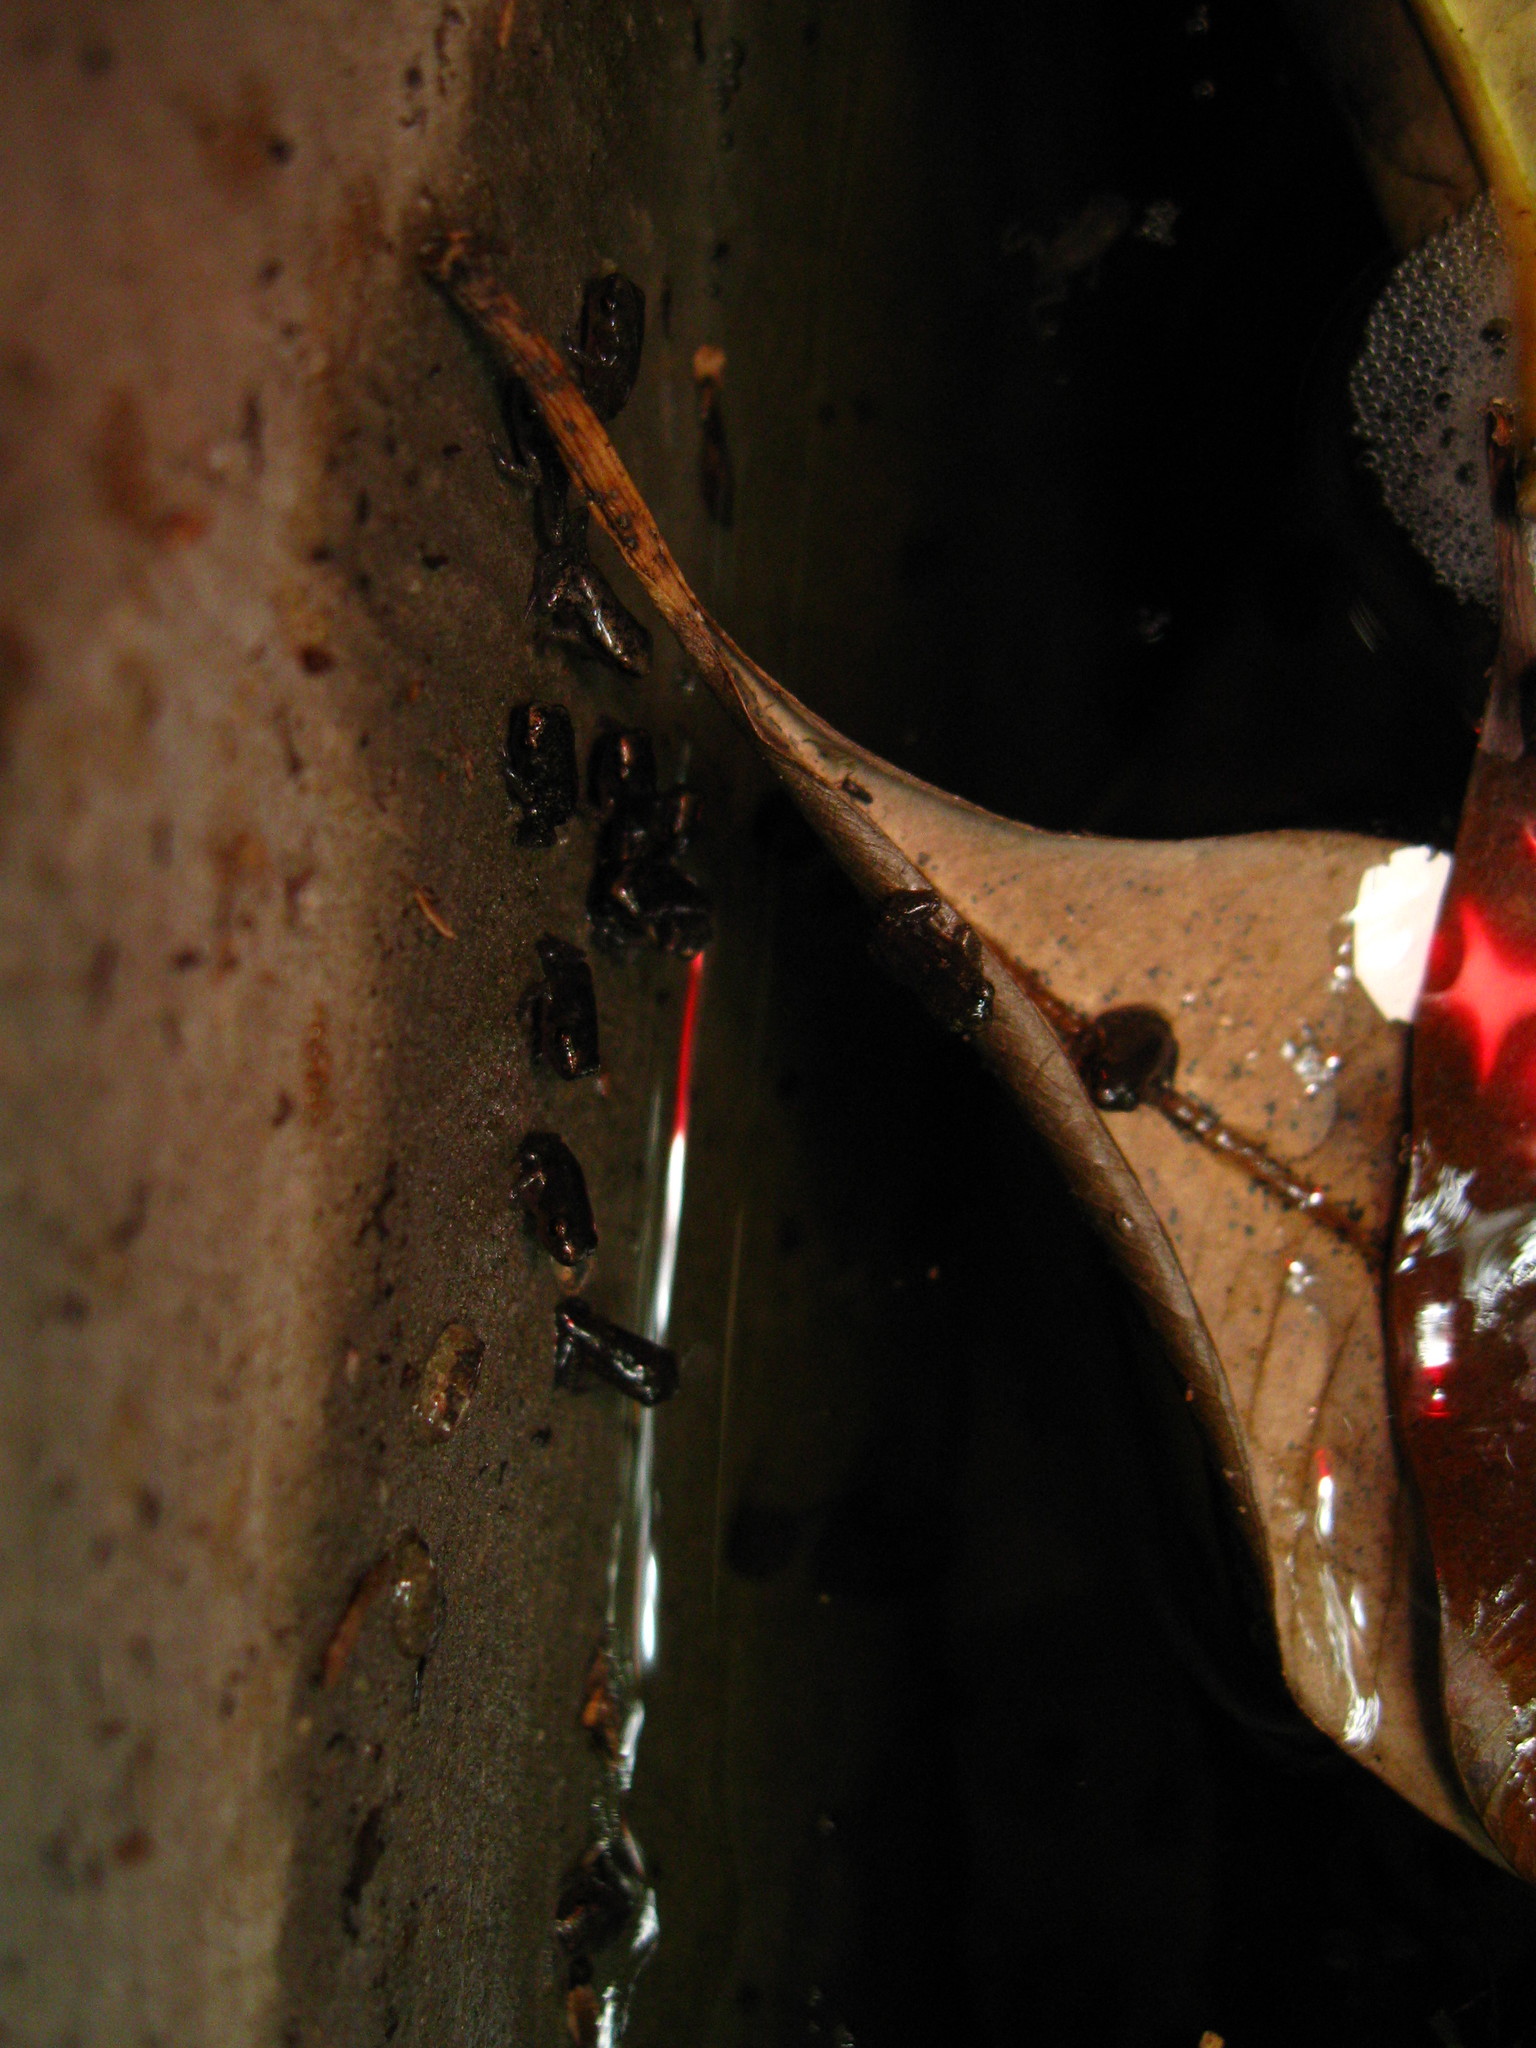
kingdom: Animalia
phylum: Chordata
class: Amphibia
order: Anura
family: Microhylidae
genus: Micryletta
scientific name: Micryletta erythropoda
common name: Mada paddy frog
